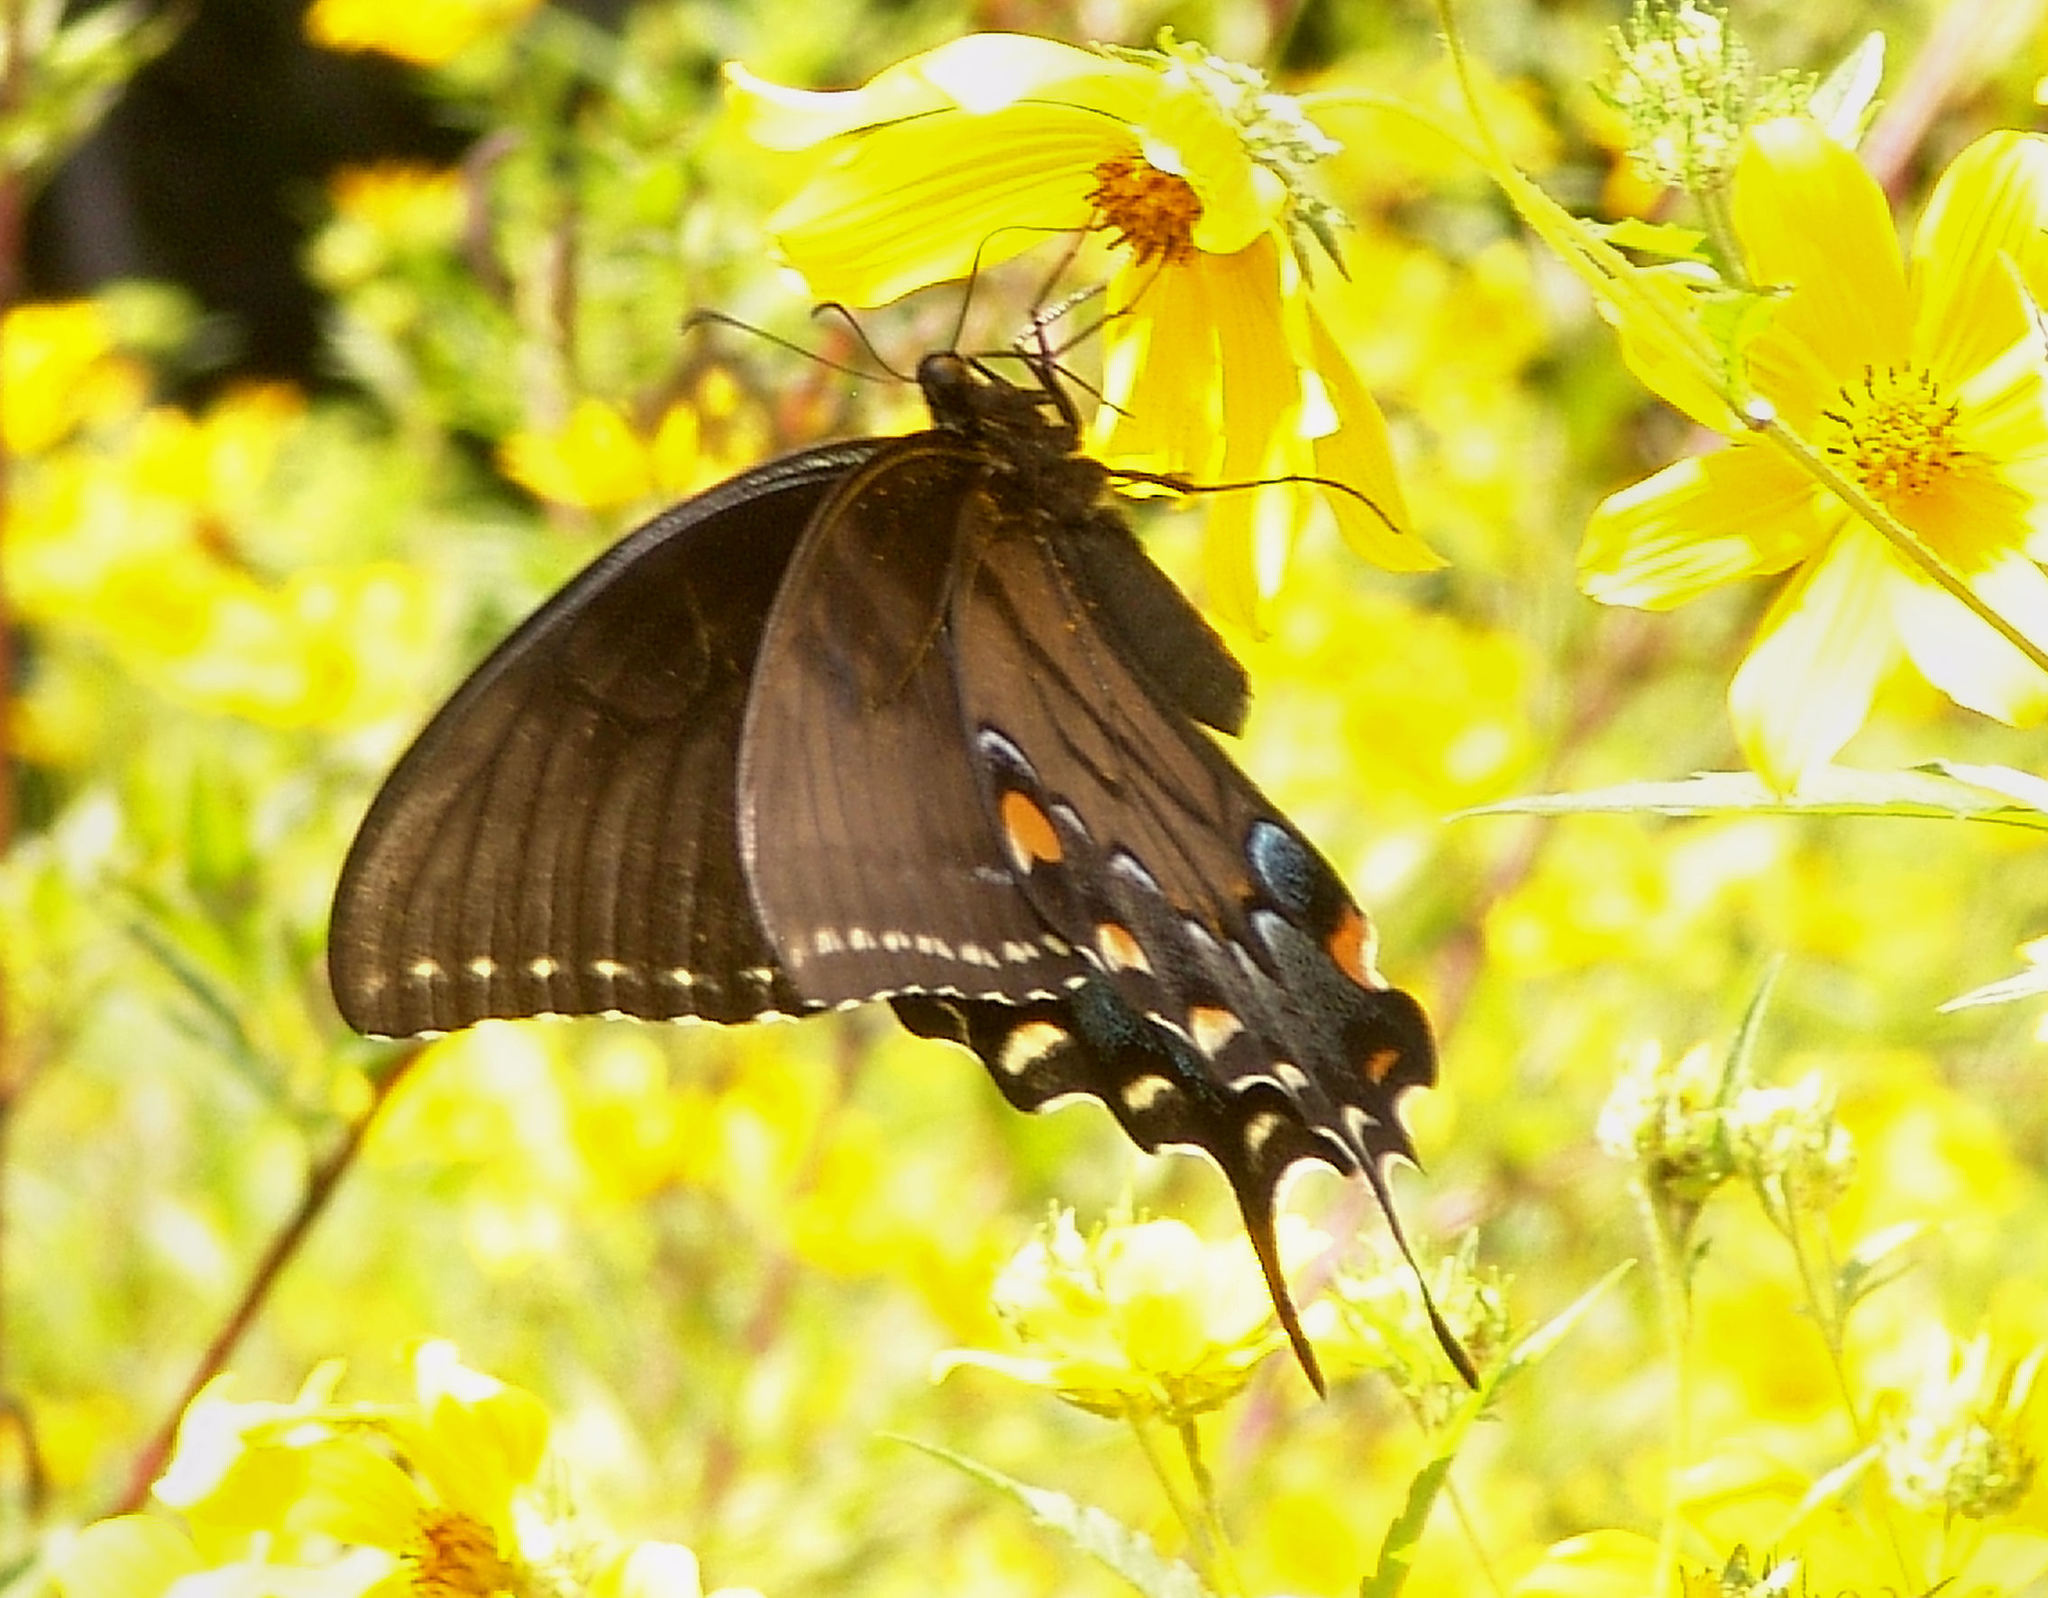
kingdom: Animalia
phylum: Arthropoda
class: Insecta
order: Lepidoptera
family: Papilionidae
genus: Papilio
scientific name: Papilio glaucus
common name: Tiger swallowtail
